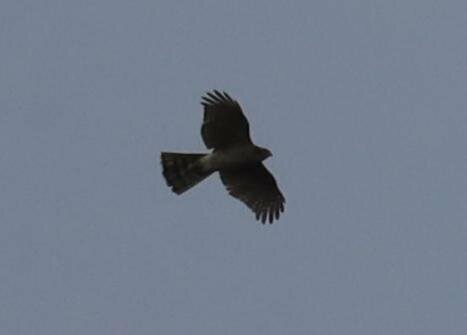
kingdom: Animalia
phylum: Chordata
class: Aves
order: Accipitriformes
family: Accipitridae
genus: Accipiter
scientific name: Accipiter nisus
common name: Eurasian sparrowhawk
